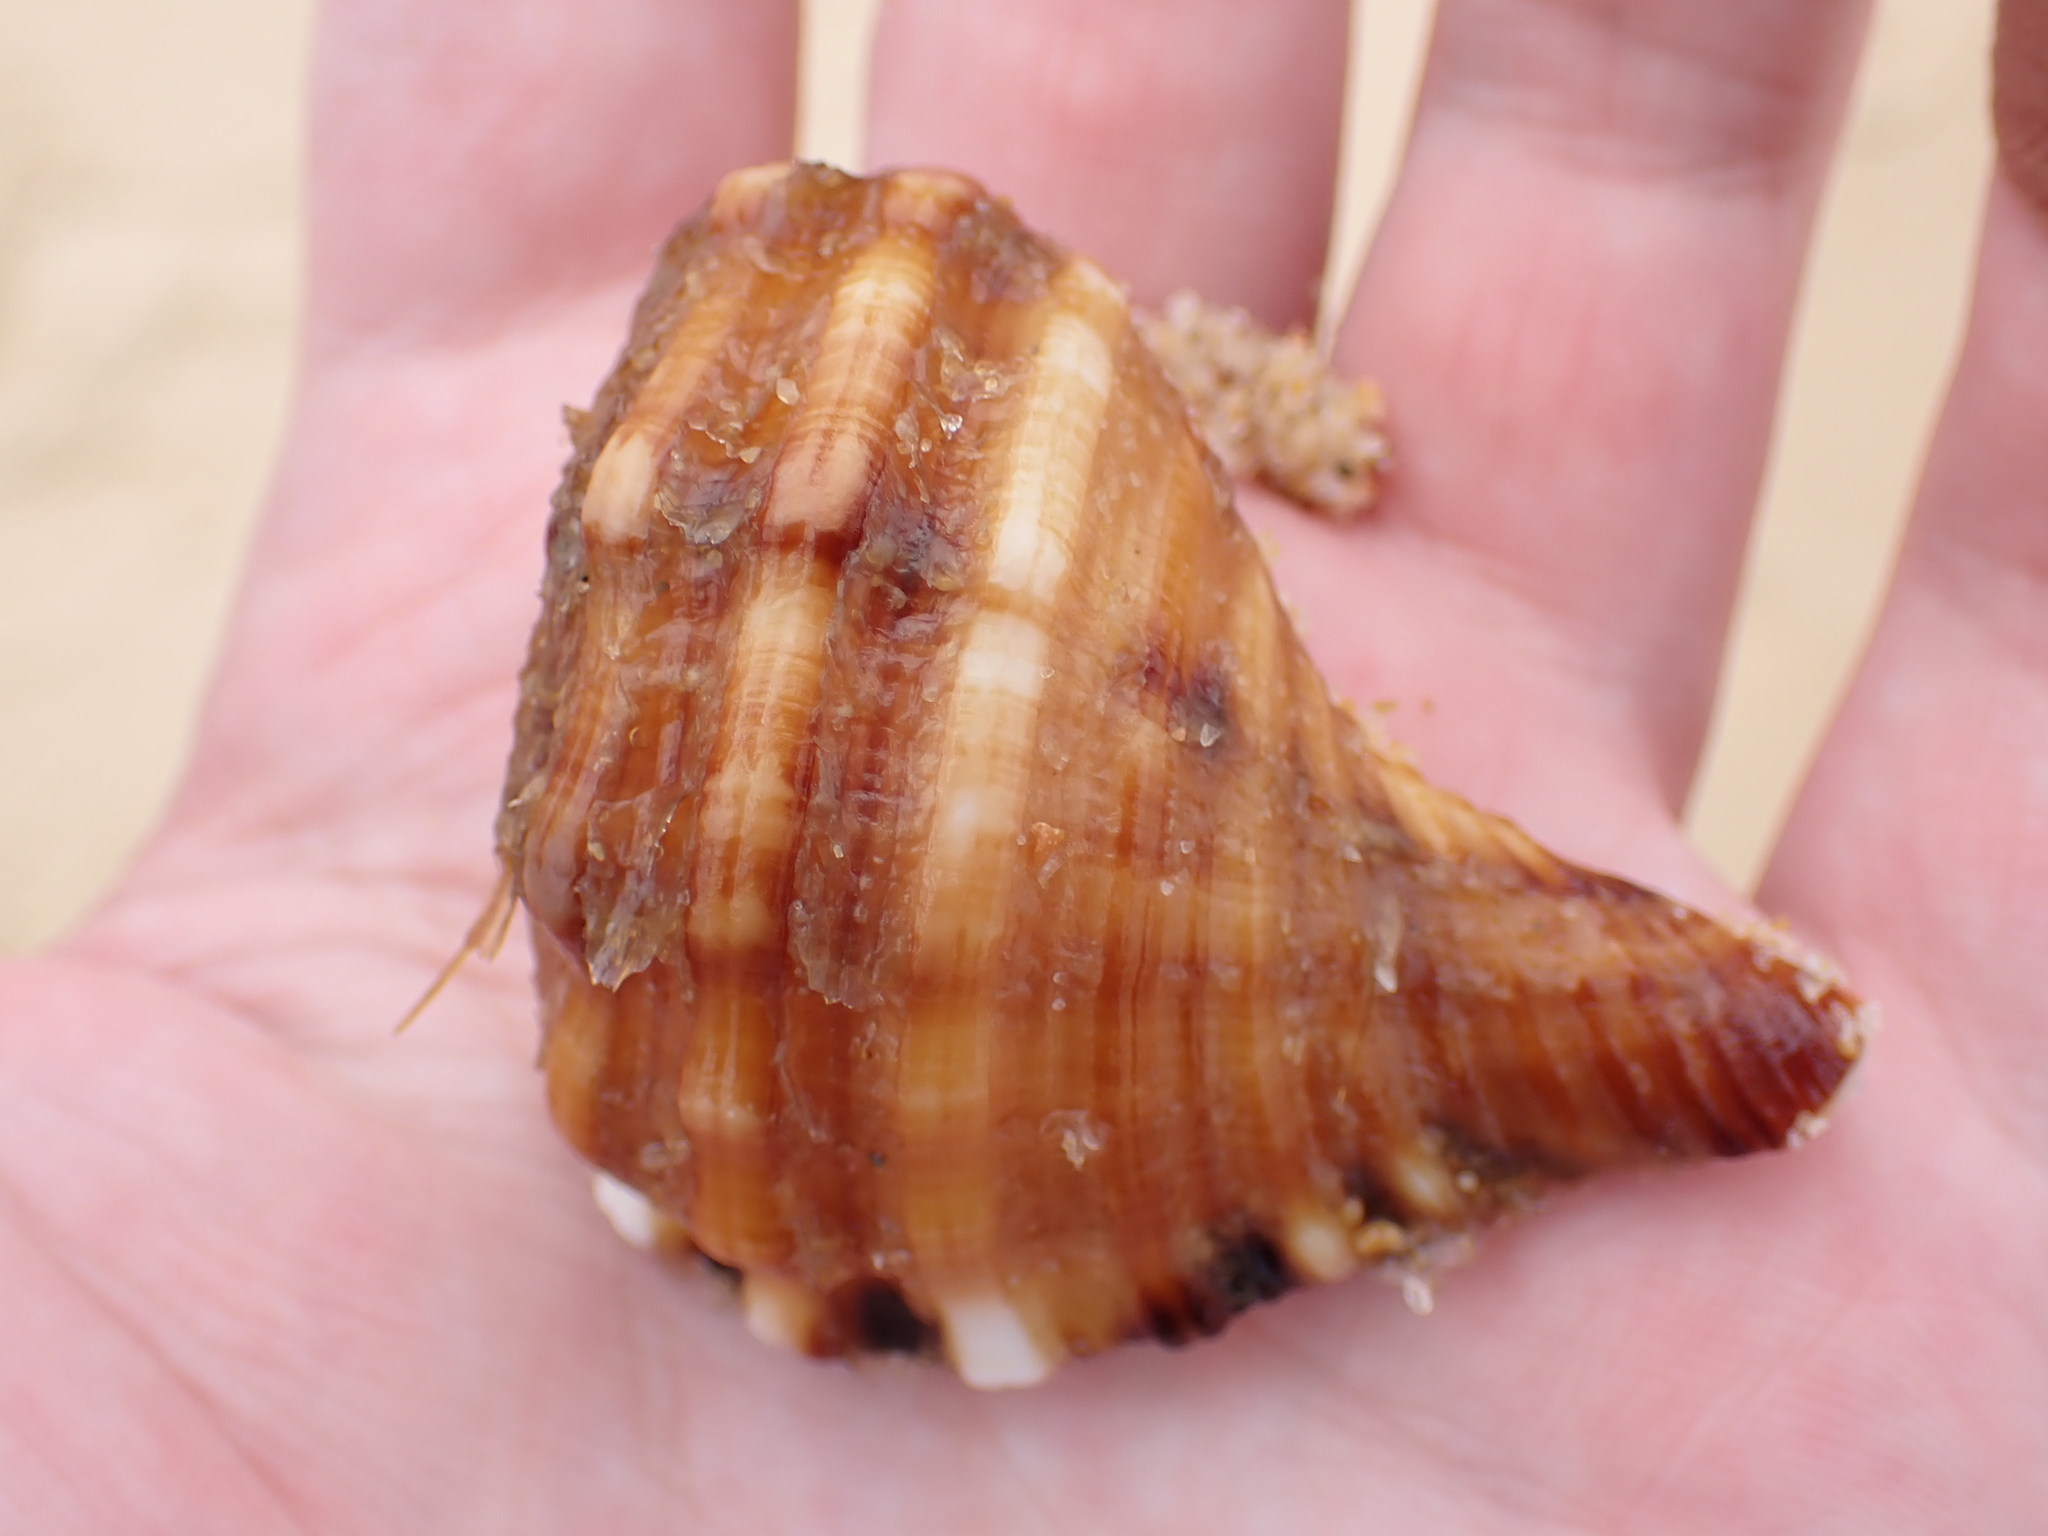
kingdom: Animalia
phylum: Mollusca
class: Gastropoda
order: Littorinimorpha
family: Cymatiidae
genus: Monoplex
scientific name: Monoplex parthenopeus
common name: Giant triton
